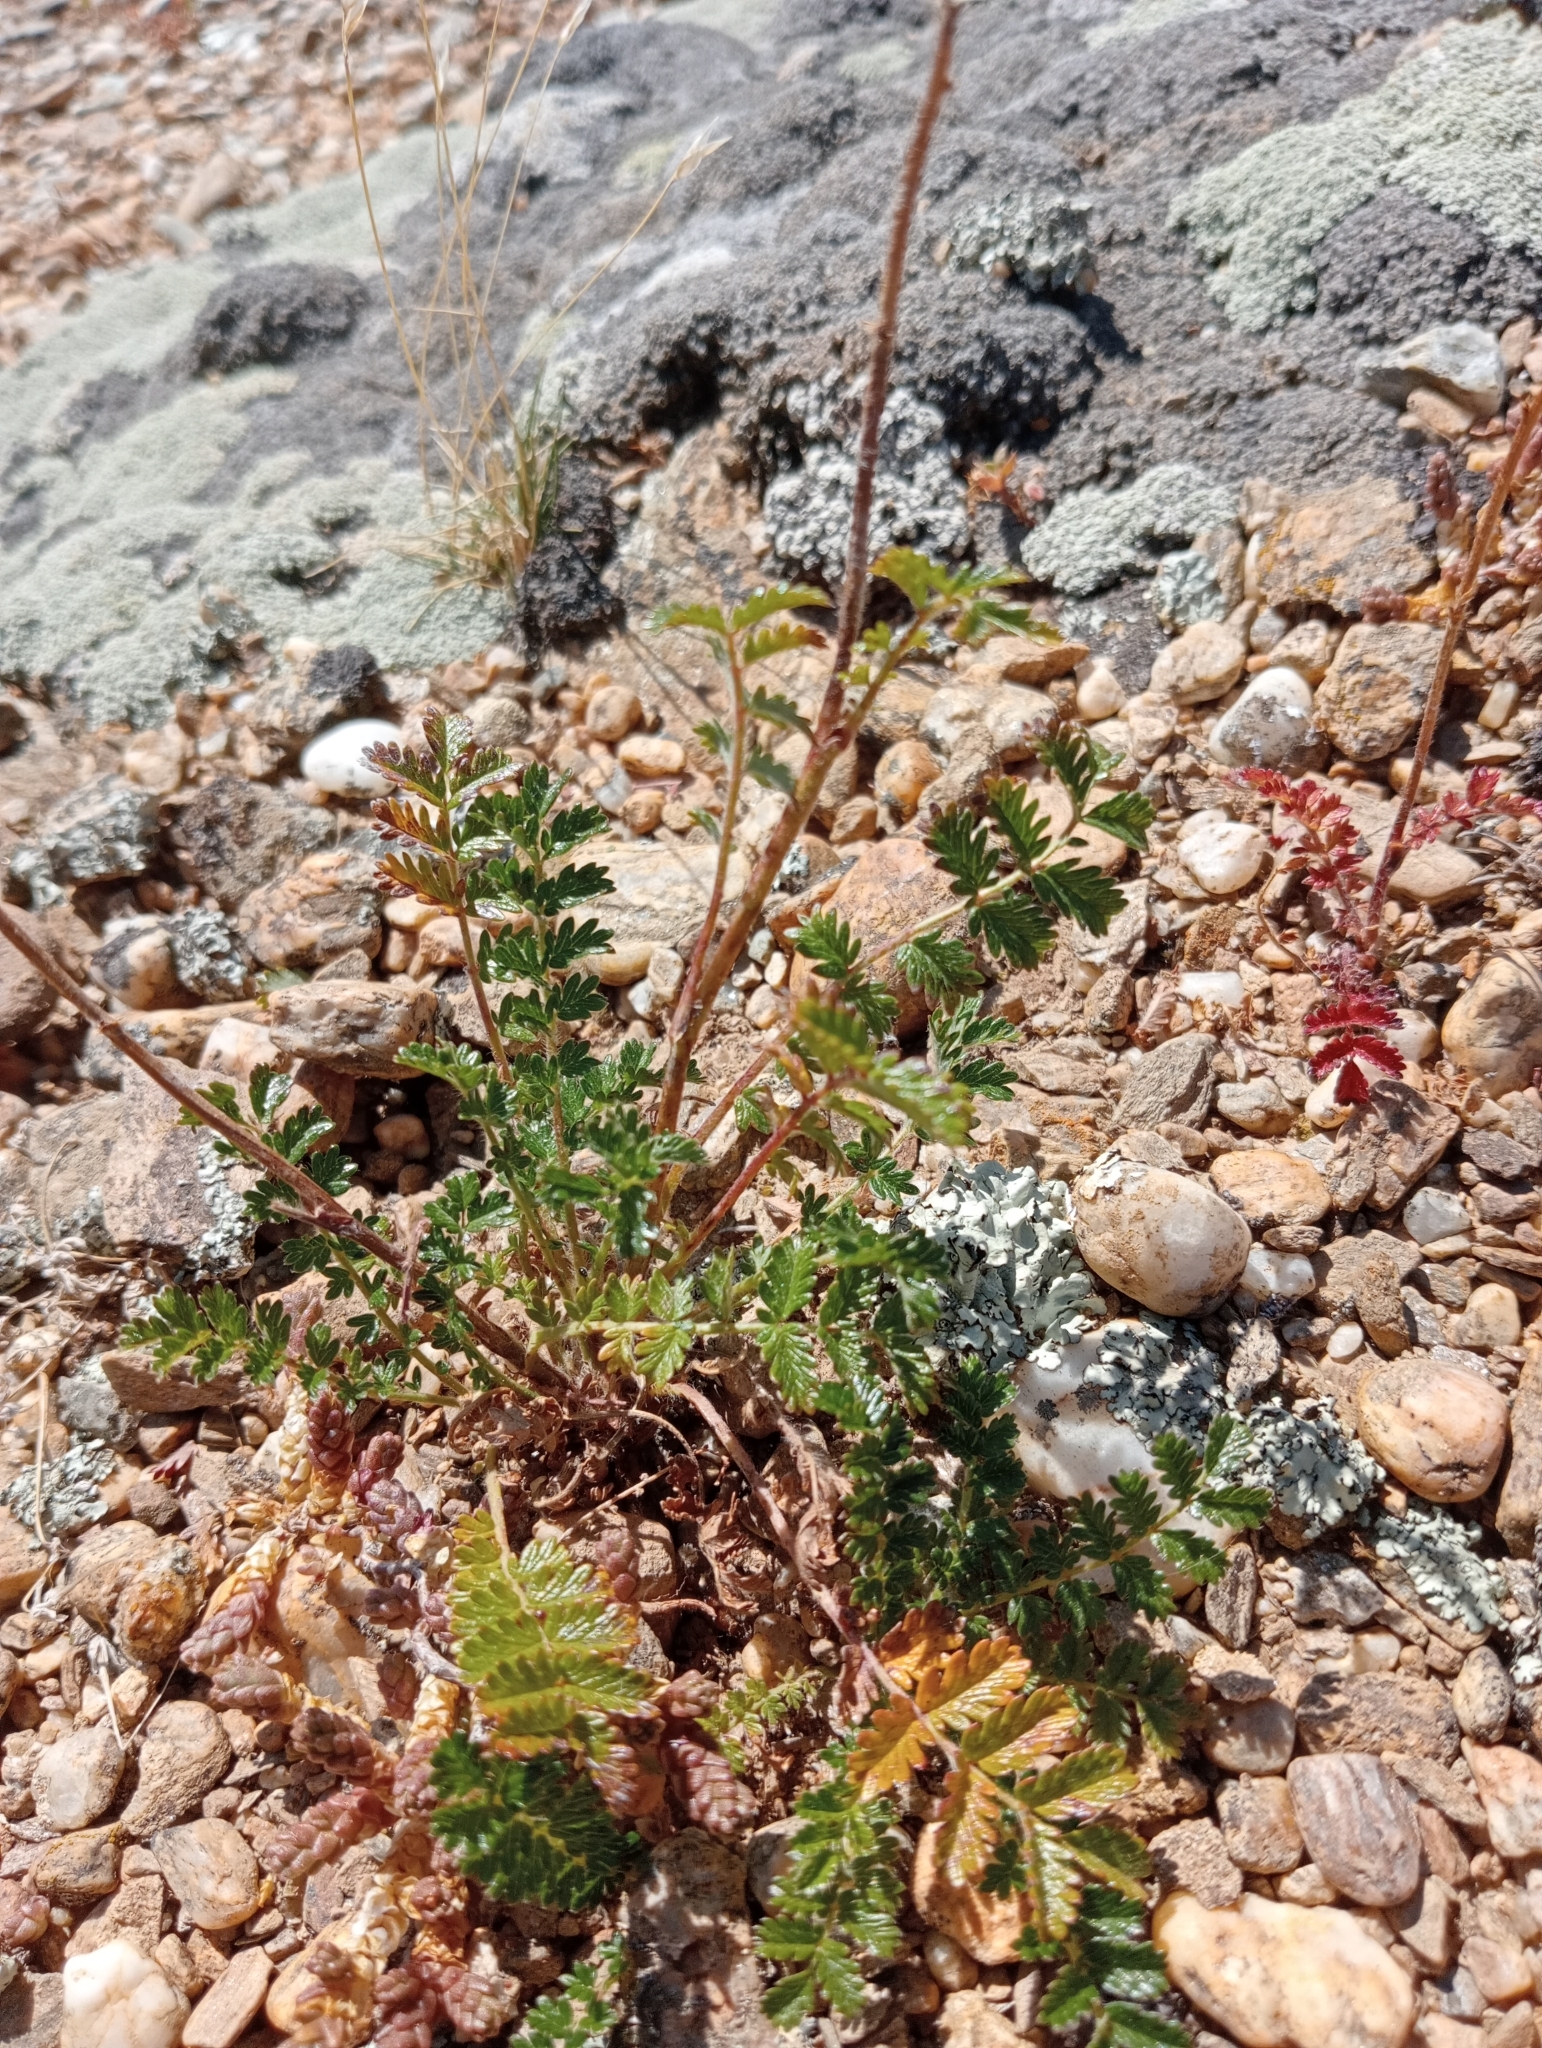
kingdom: Plantae
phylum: Tracheophyta
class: Magnoliopsida
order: Rosales
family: Rosaceae
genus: Acaena
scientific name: Acaena agnipila
